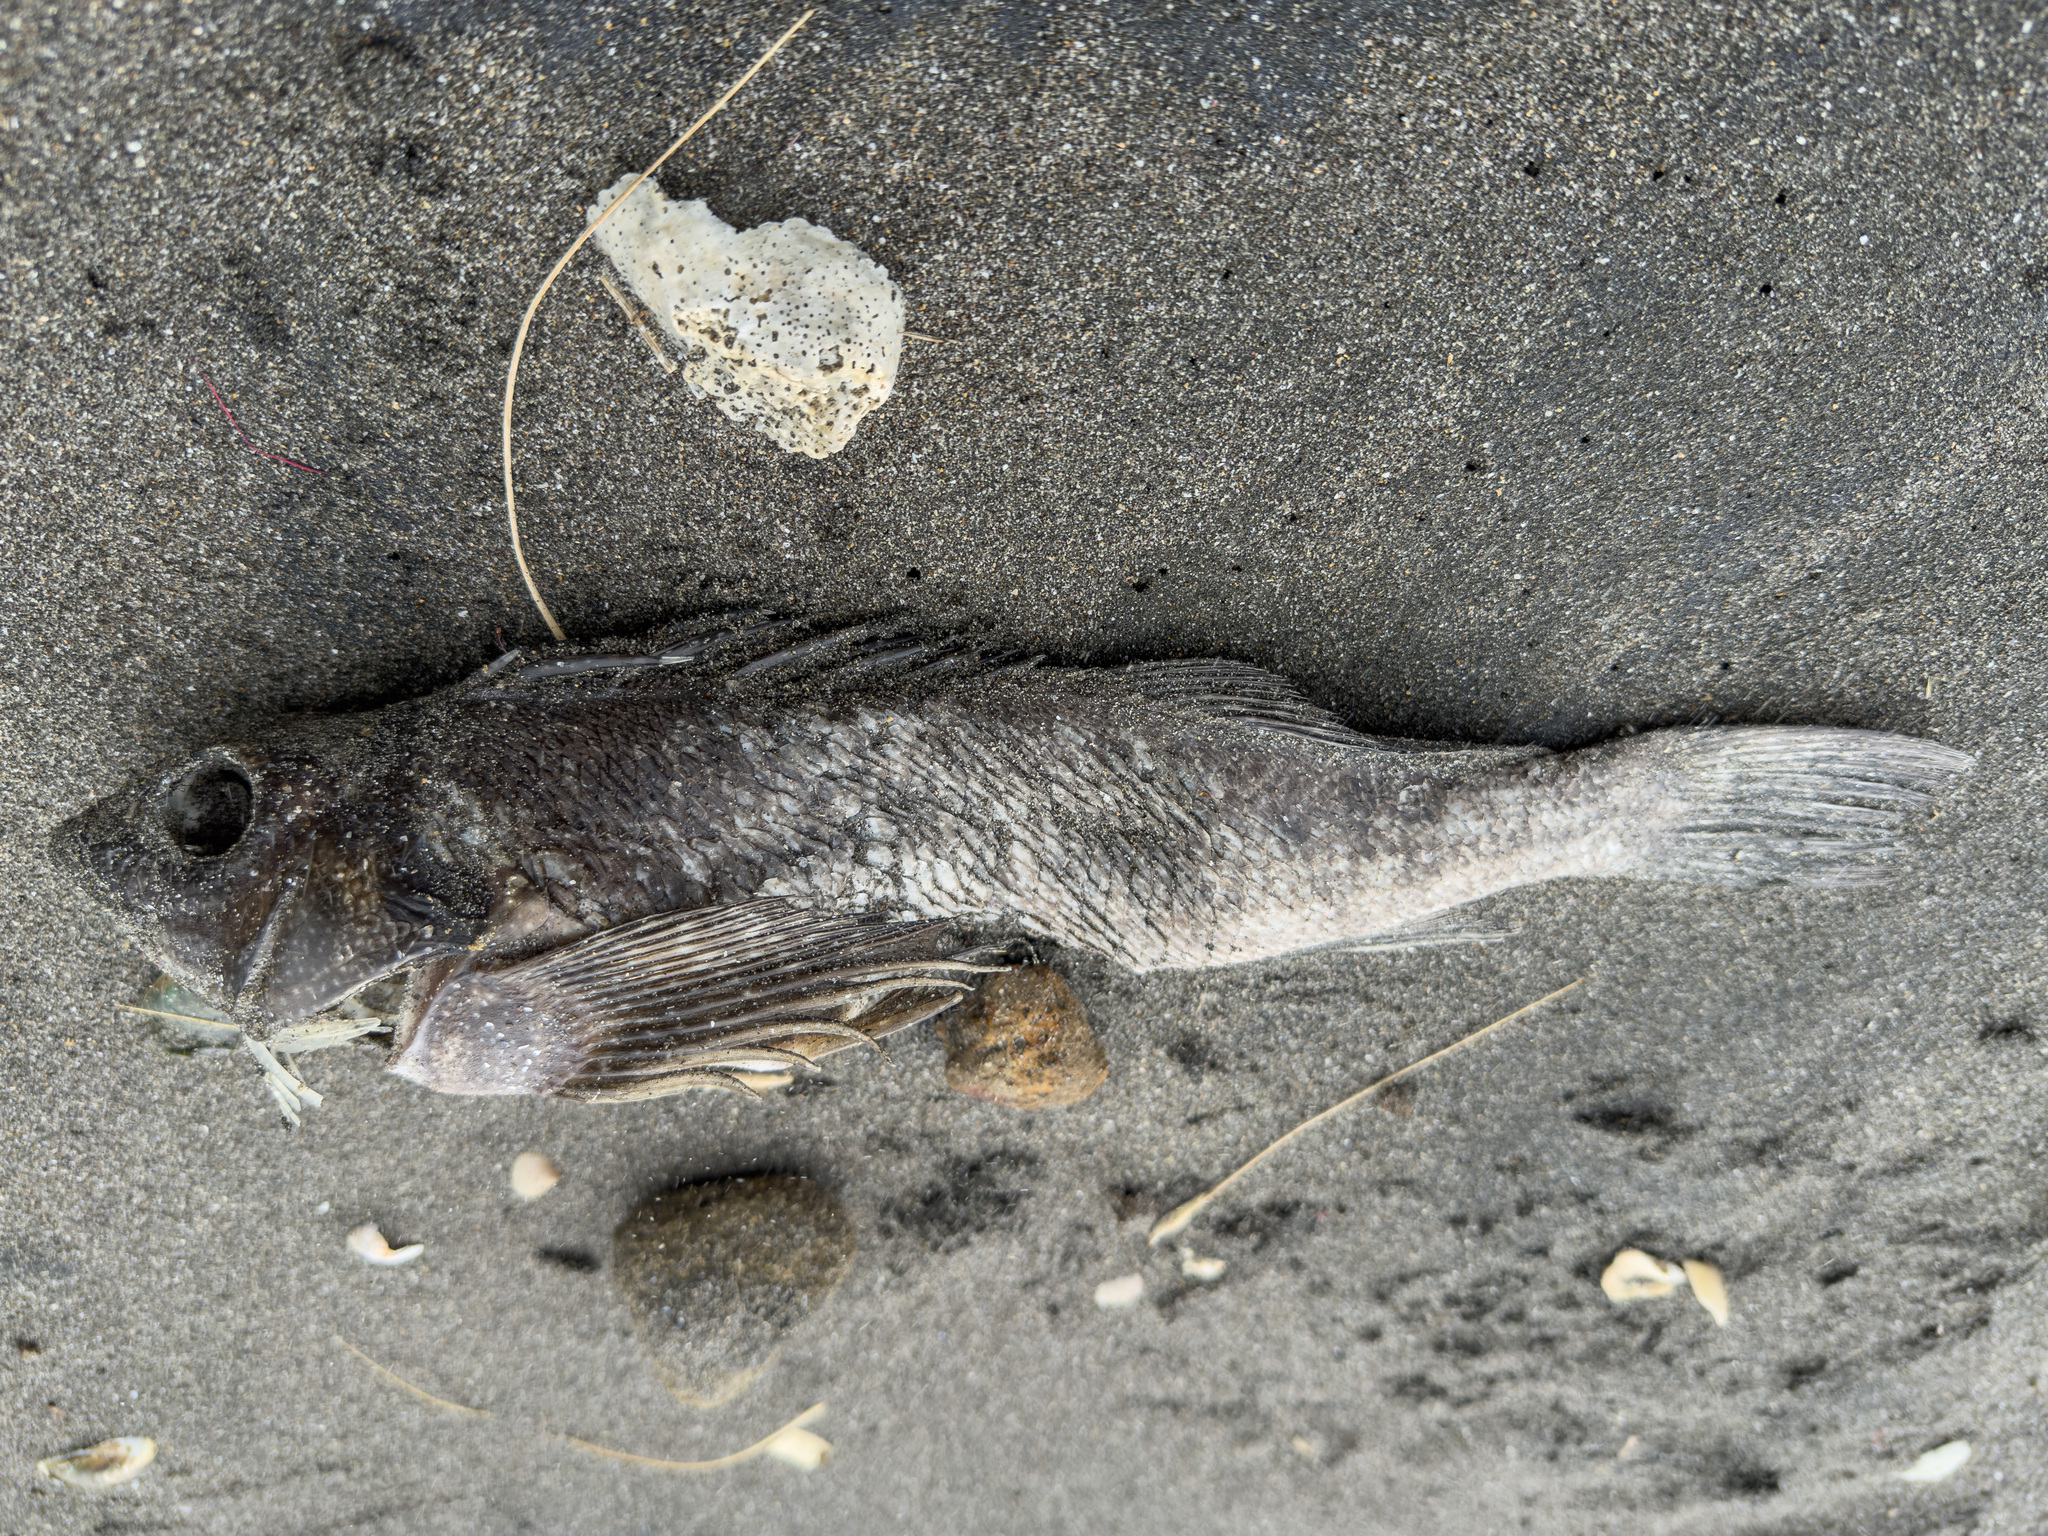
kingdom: Animalia
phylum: Chordata
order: Perciformes
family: Chironemidae
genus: Chironemus
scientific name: Chironemus marmoratus
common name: Kelpfish
